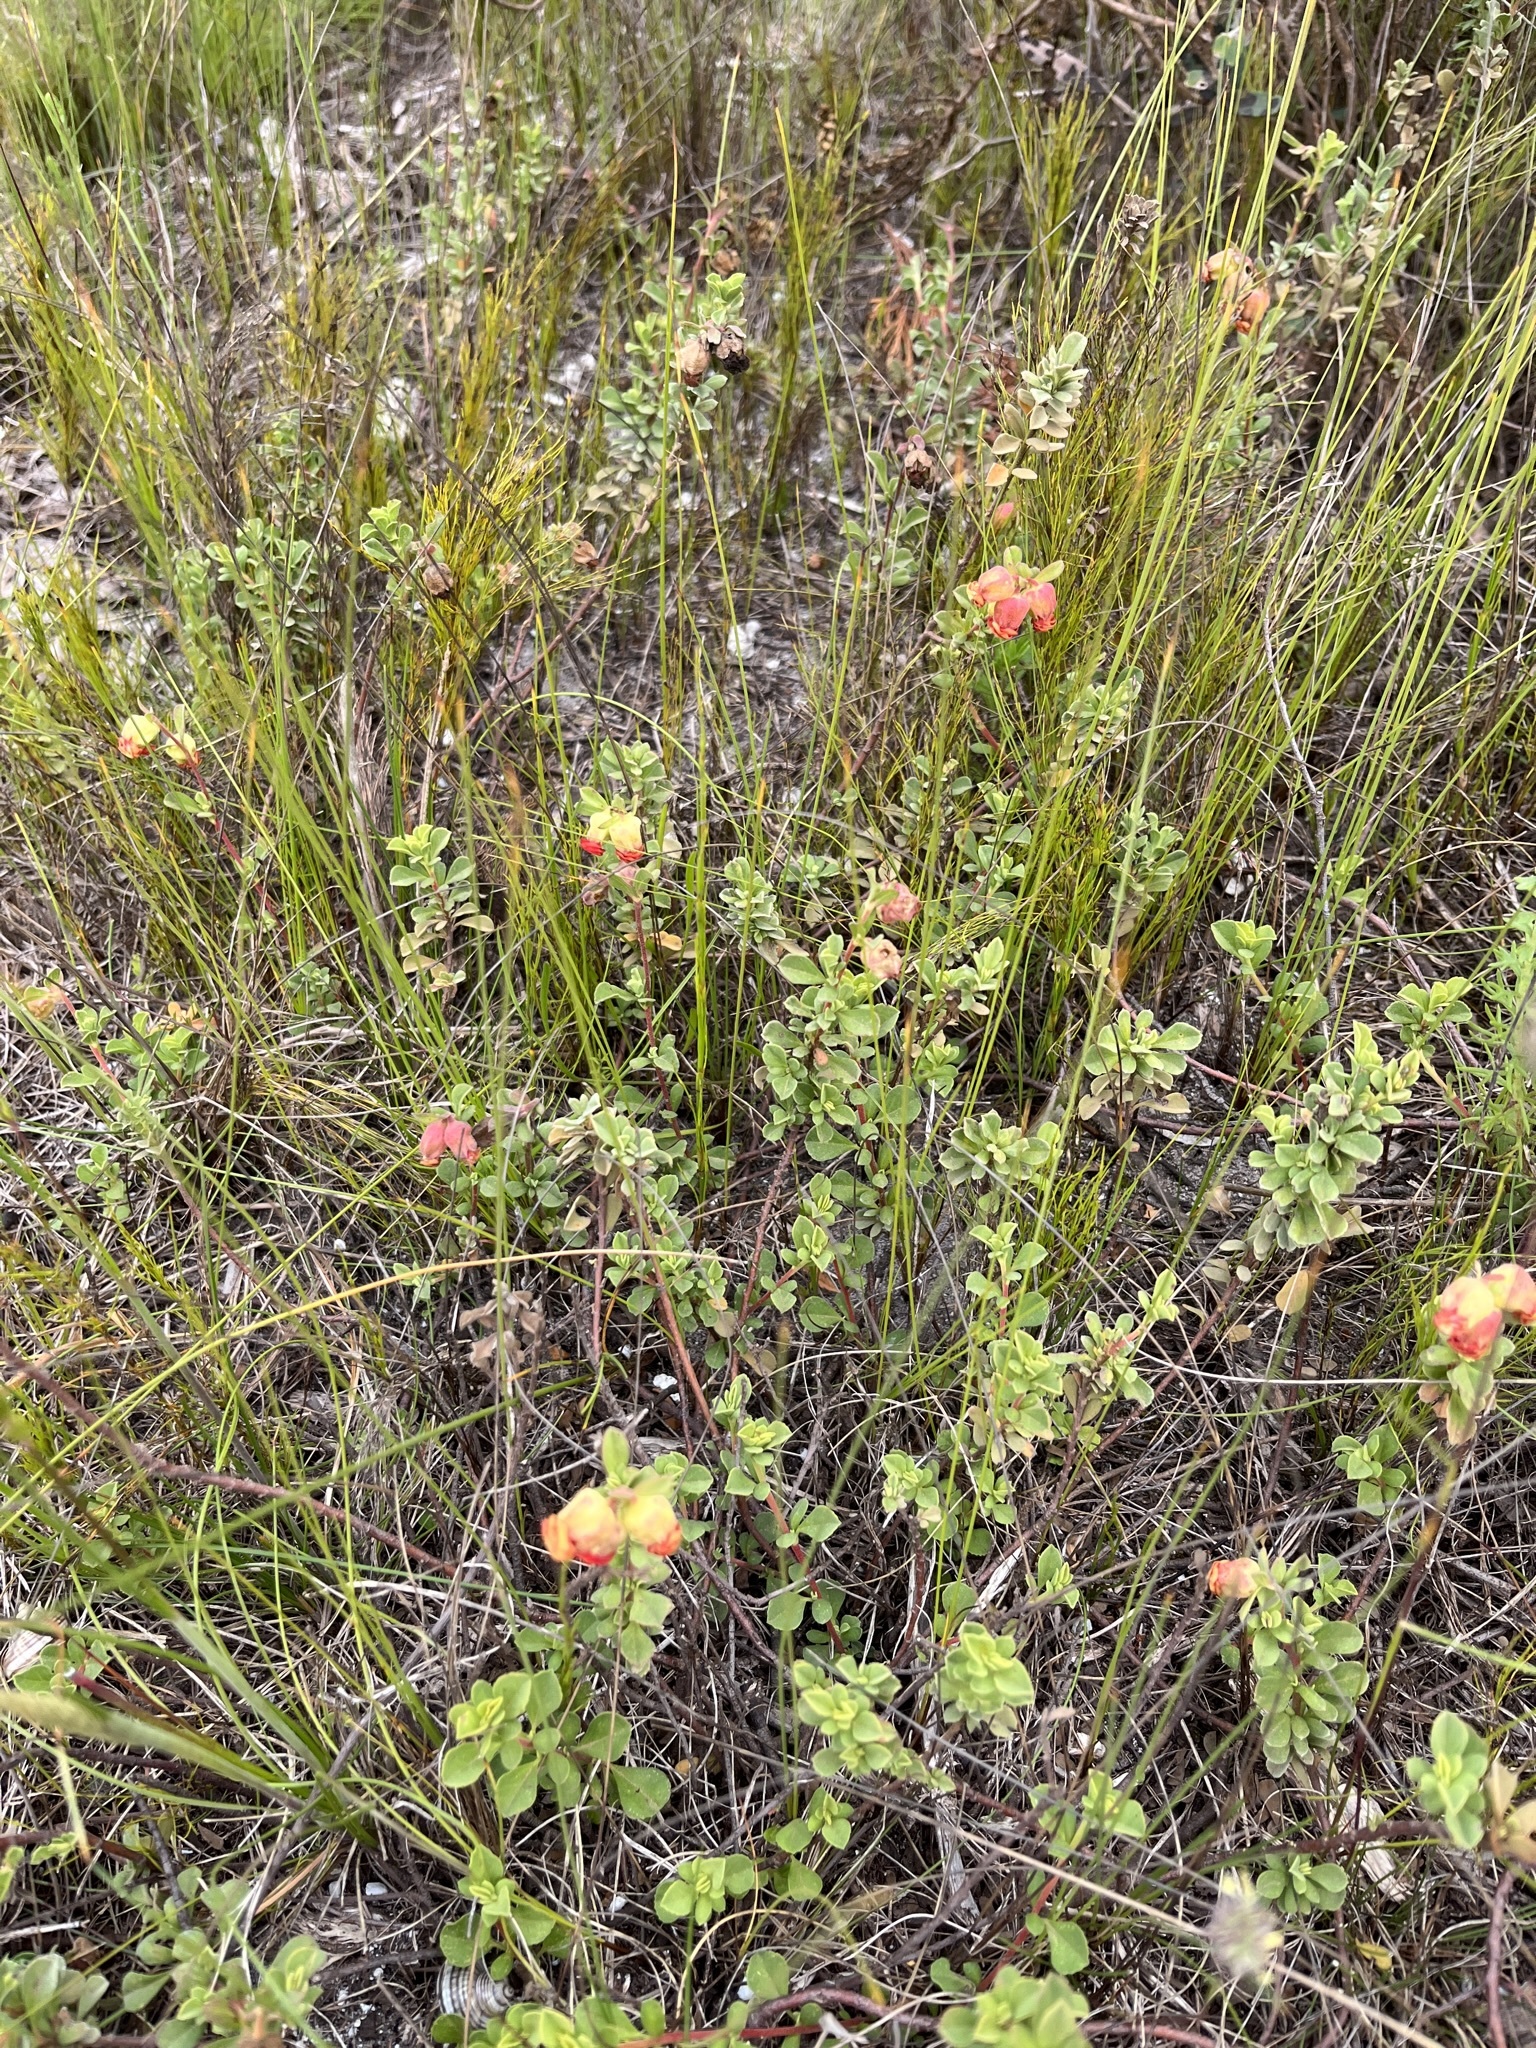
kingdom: Plantae
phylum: Tracheophyta
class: Magnoliopsida
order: Malvales
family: Malvaceae
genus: Hermannia
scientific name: Hermannia trifoliata
